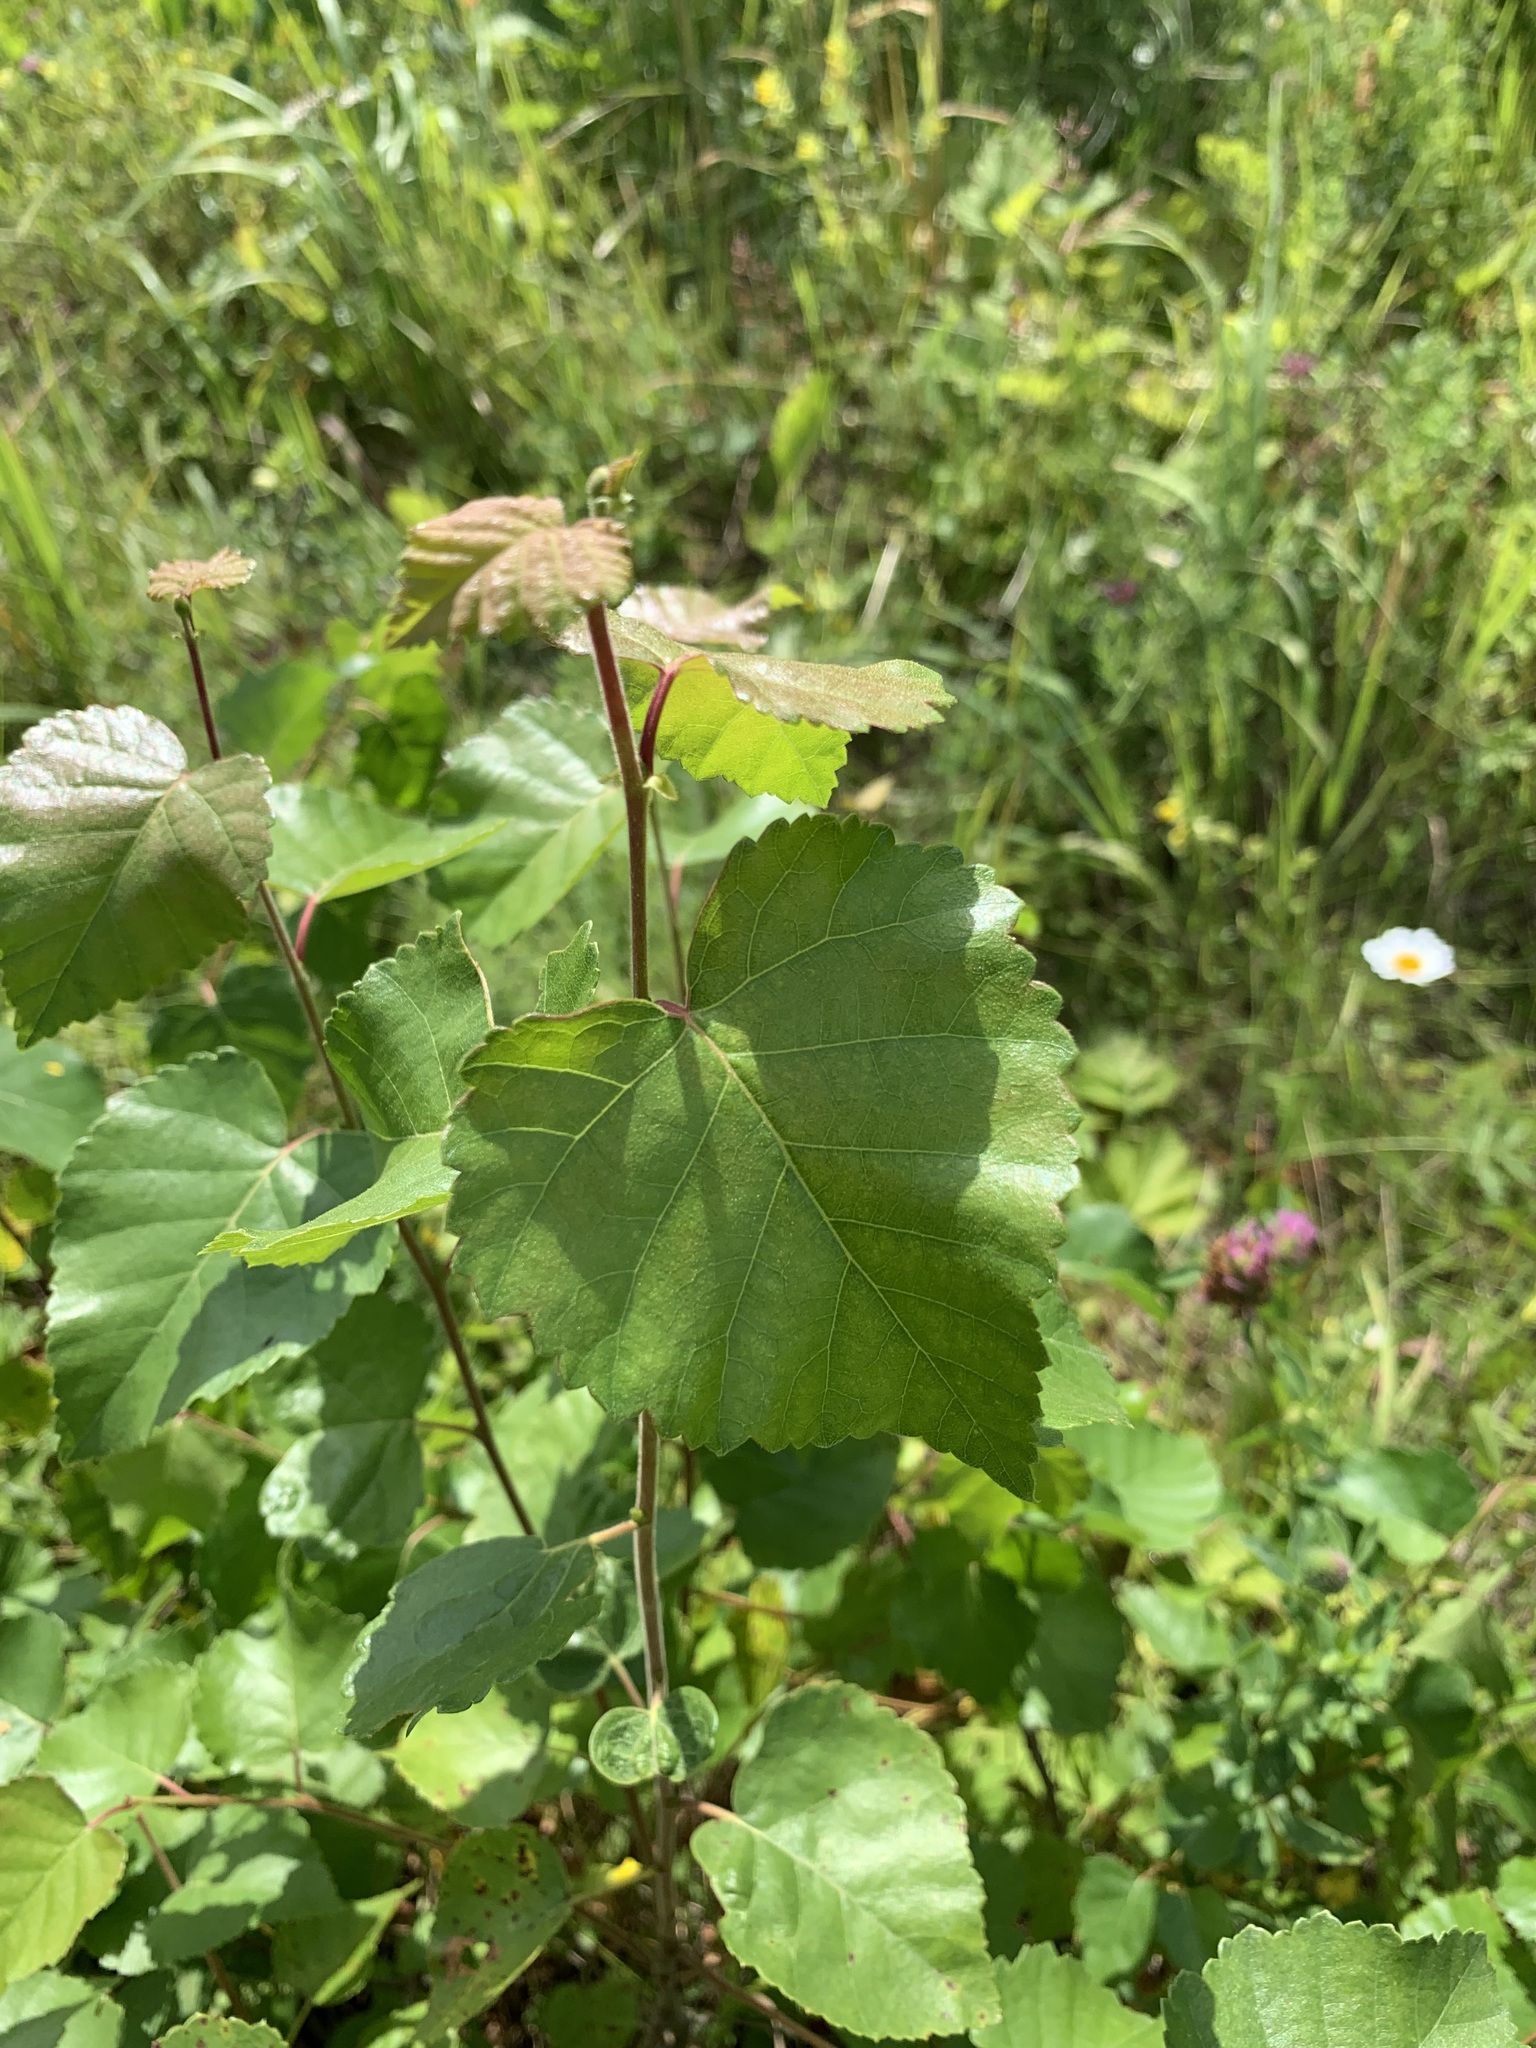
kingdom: Plantae
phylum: Tracheophyta
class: Magnoliopsida
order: Fagales
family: Betulaceae
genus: Betula
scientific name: Betula pubescens
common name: Downy birch
